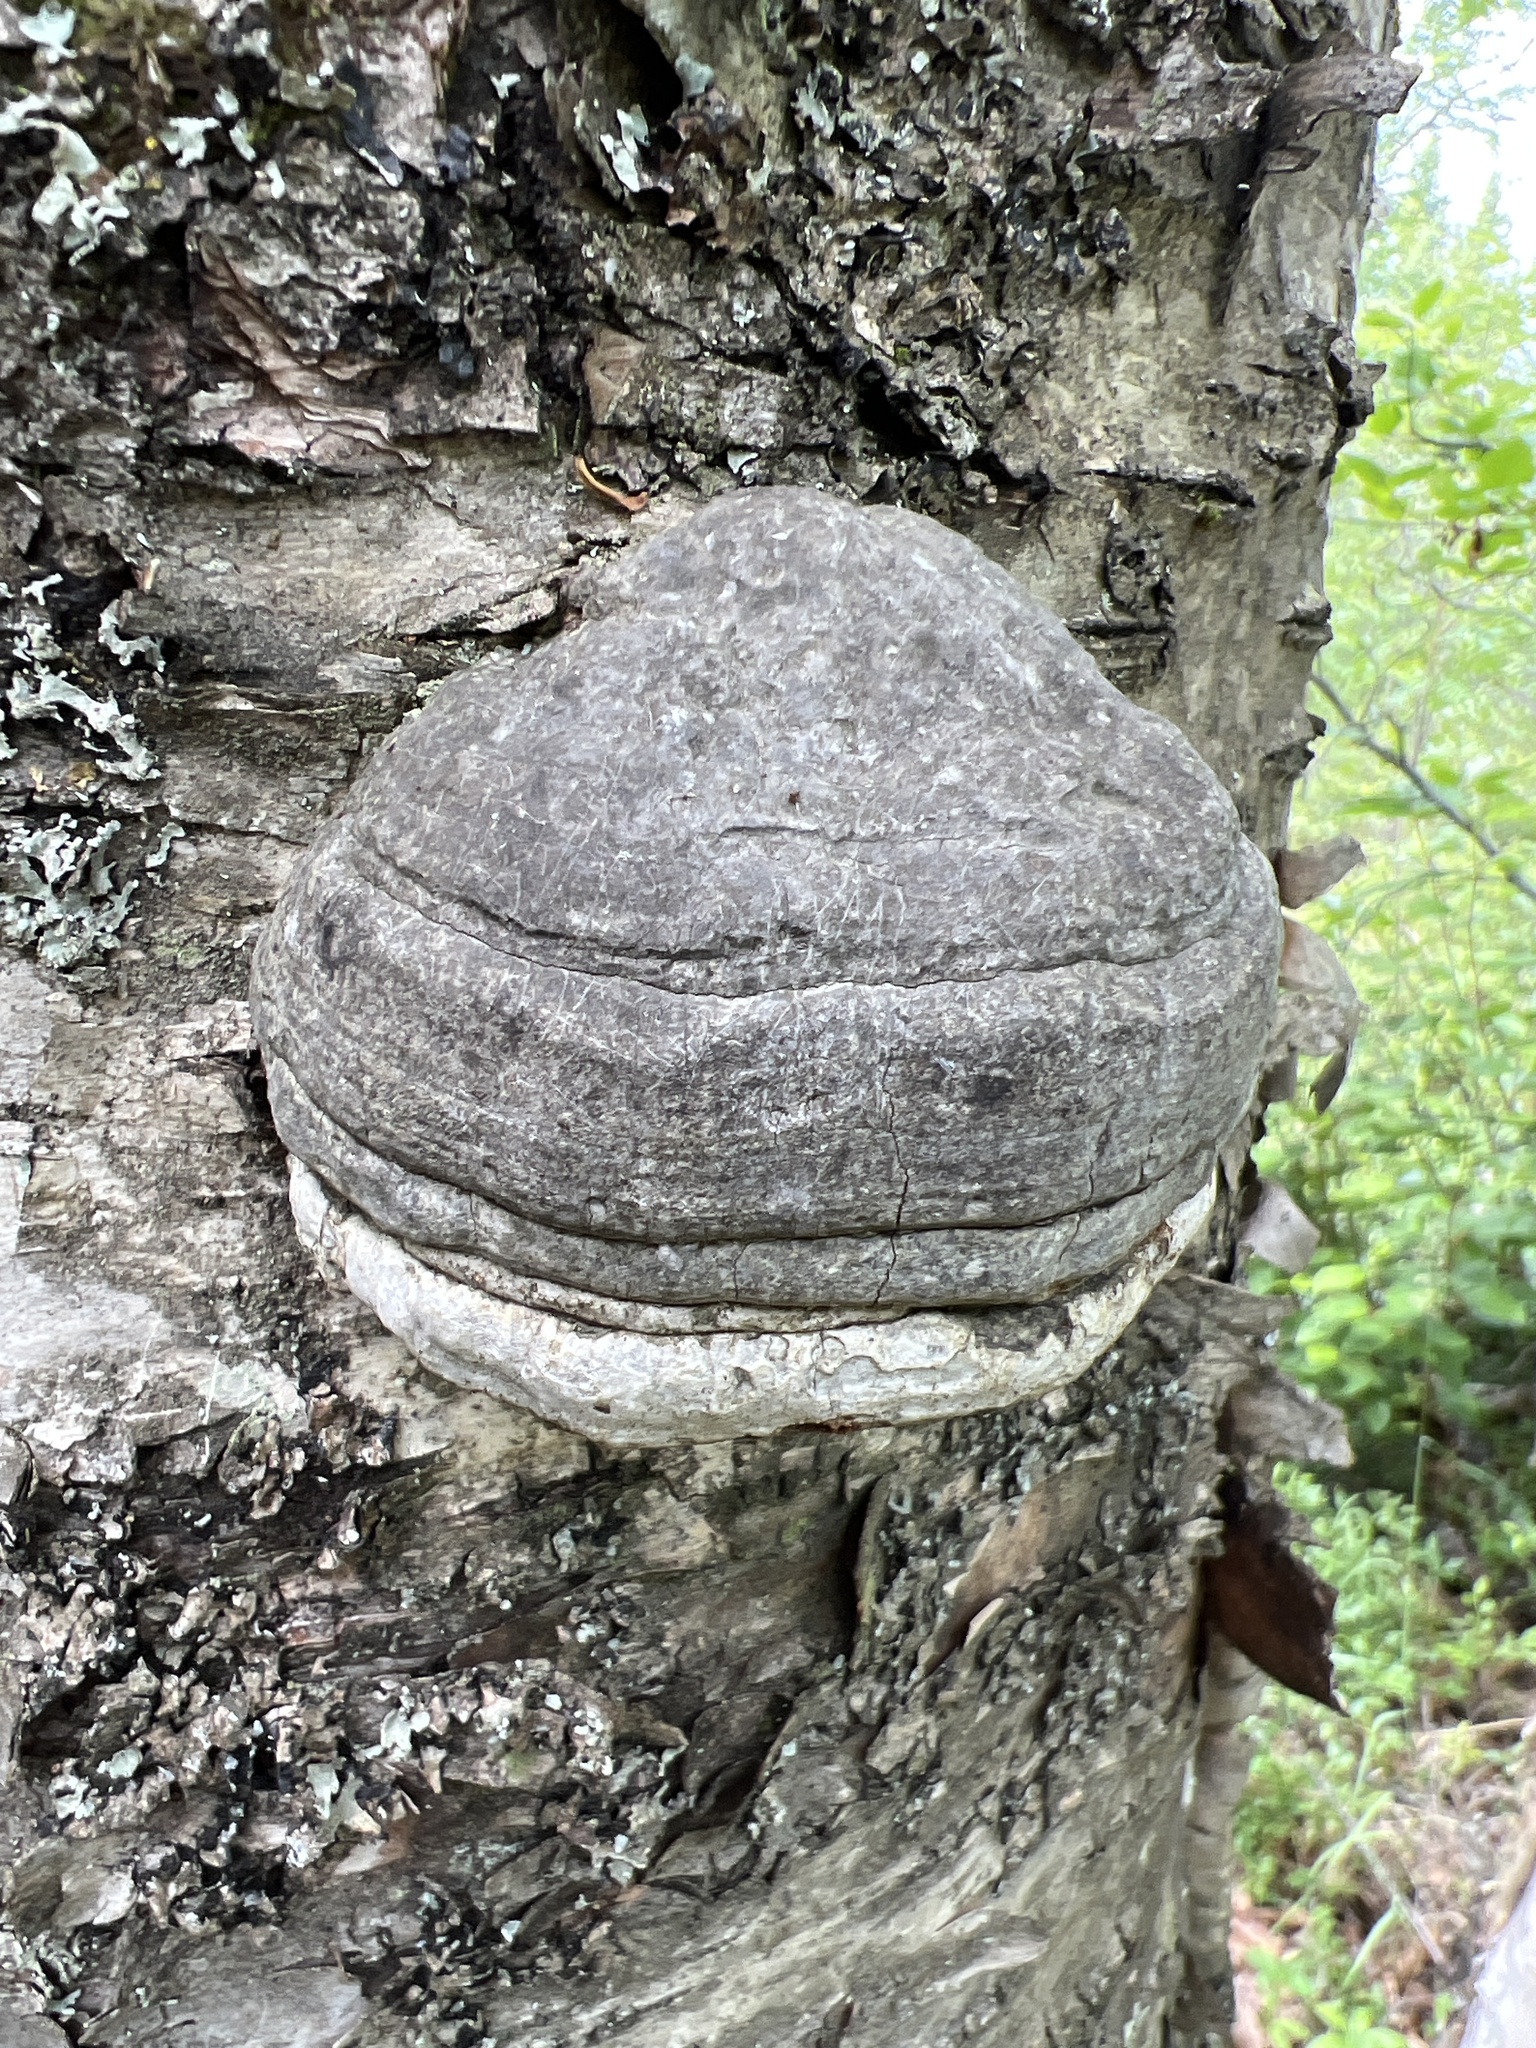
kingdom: Fungi
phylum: Basidiomycota
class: Agaricomycetes
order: Polyporales
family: Polyporaceae
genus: Fomes
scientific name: Fomes fomentarius
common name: Hoof fungus
